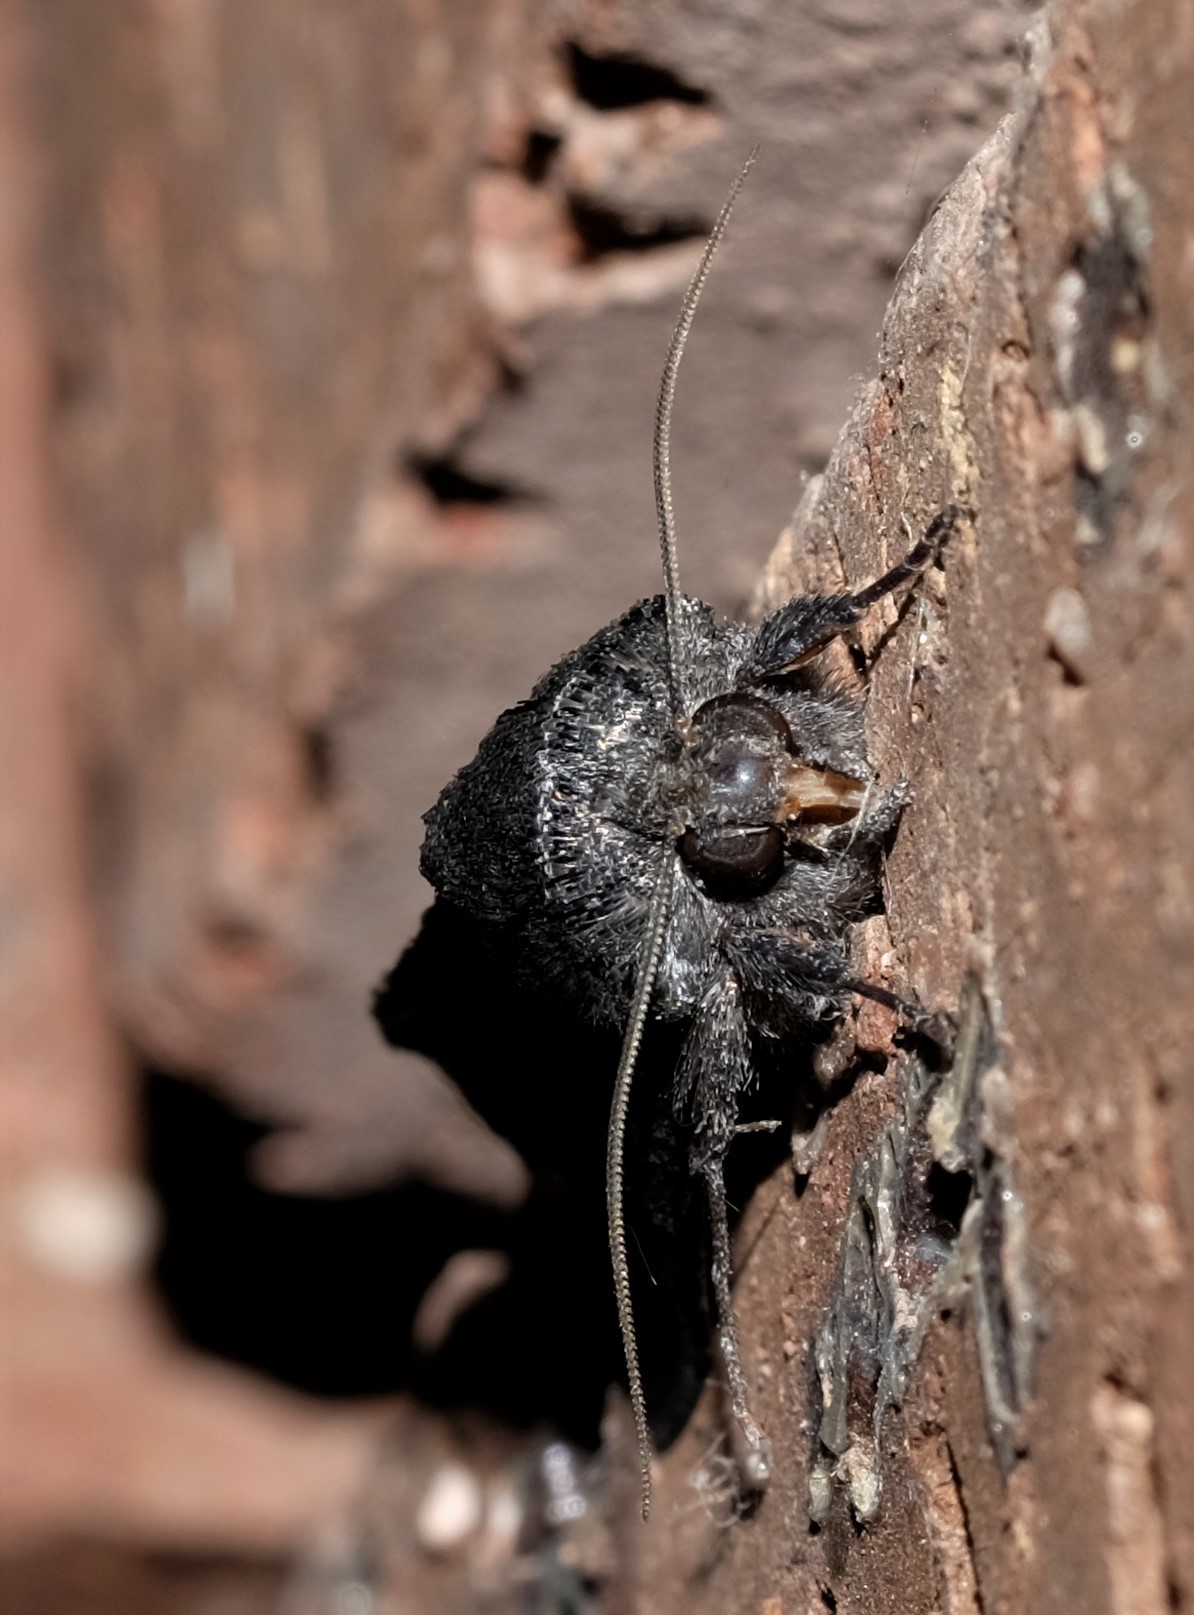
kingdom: Animalia
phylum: Arthropoda
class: Insecta
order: Lepidoptera
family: Noctuidae
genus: Neumichtis
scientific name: Neumichtis nigerrima
